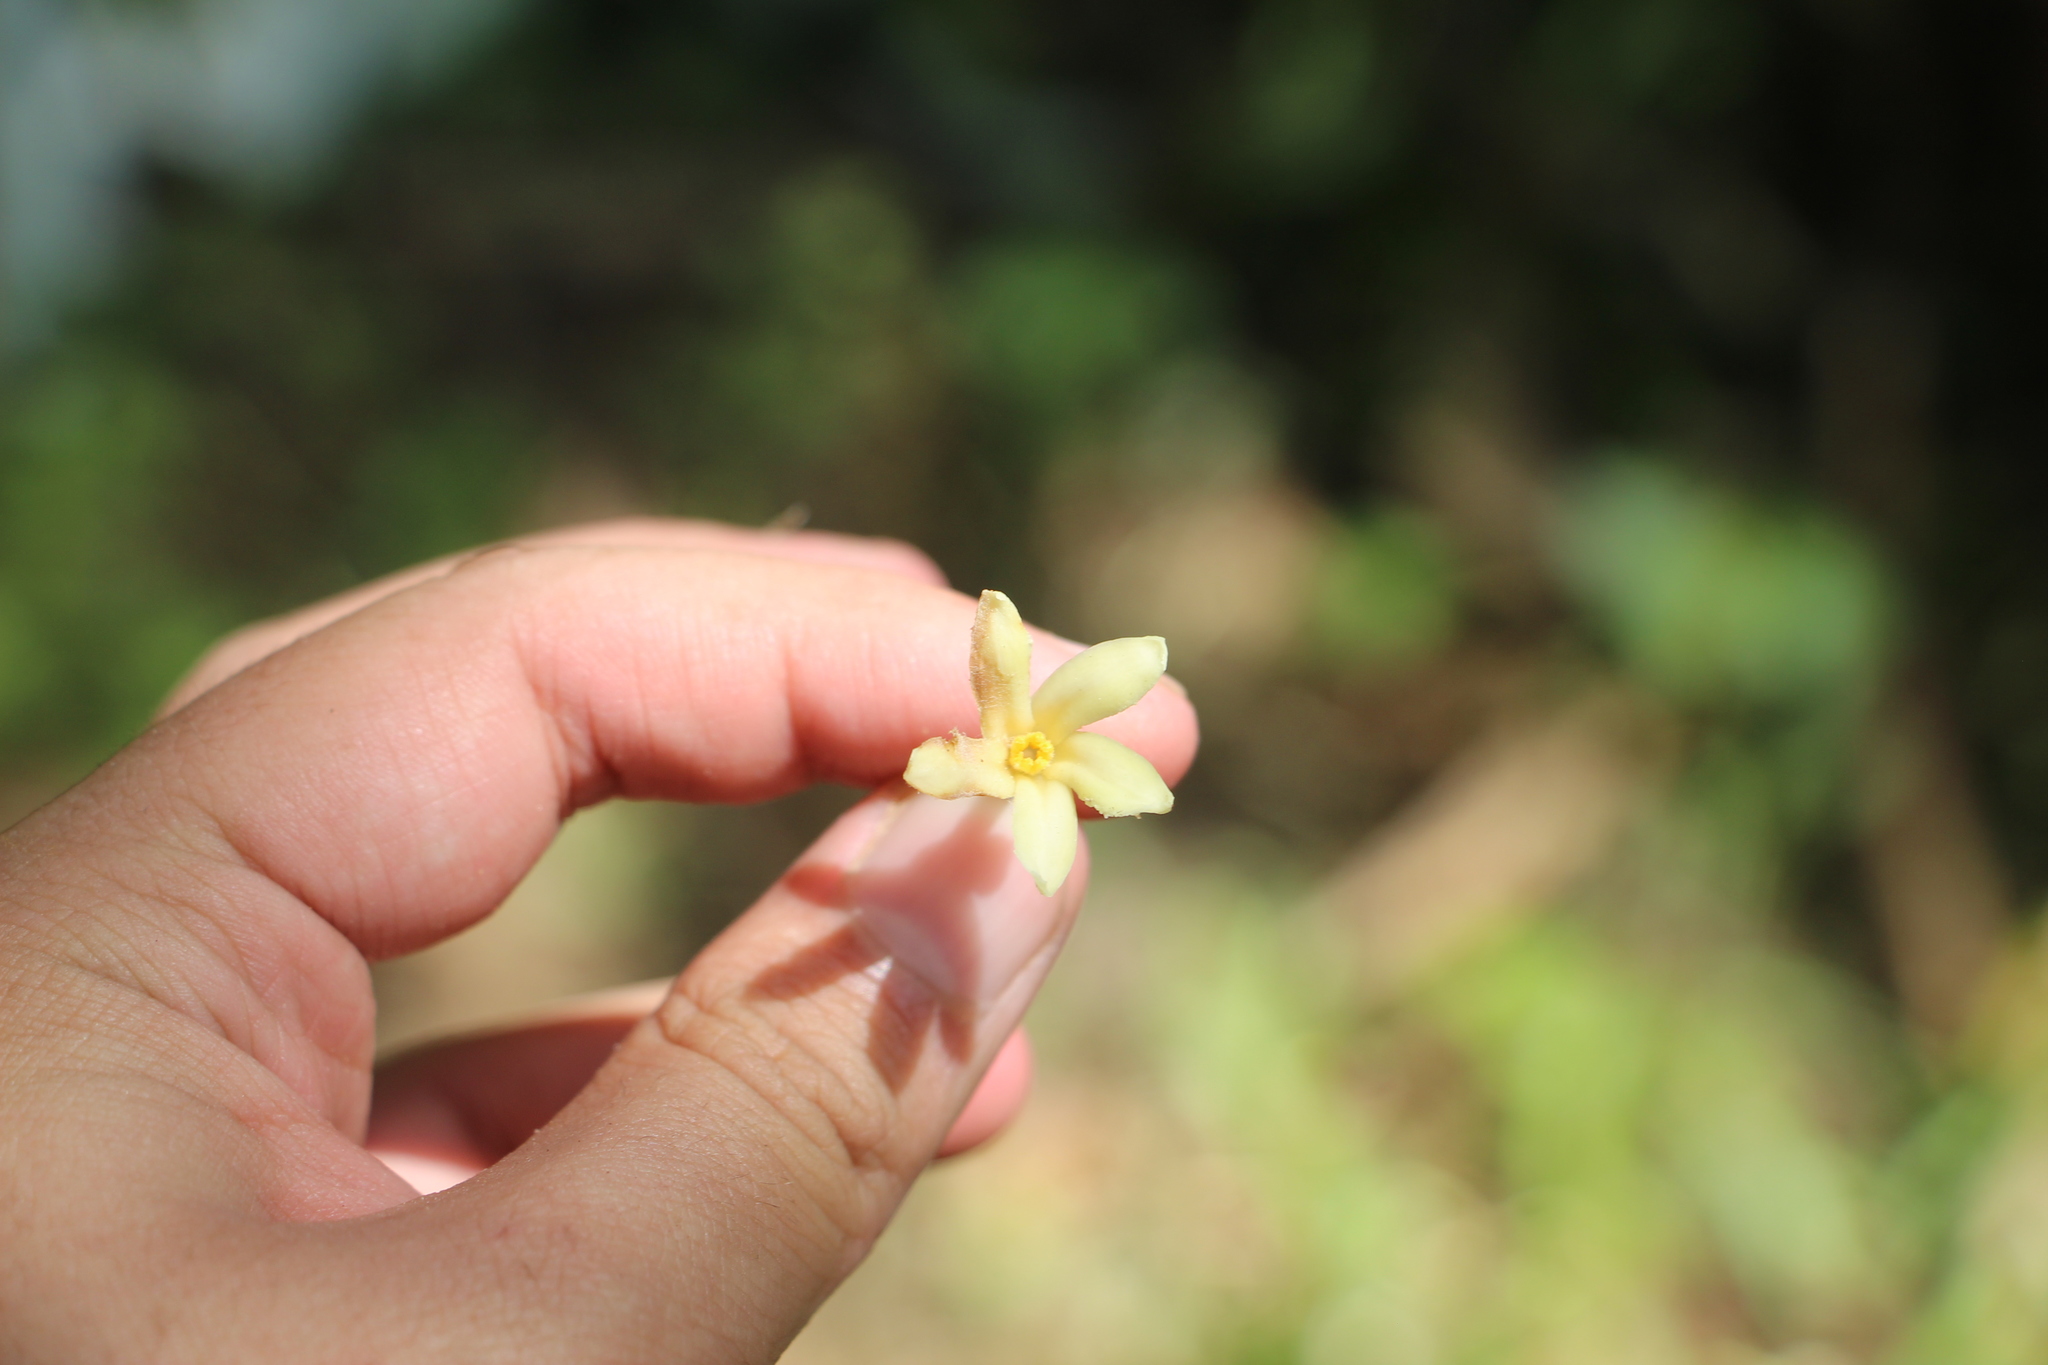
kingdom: Plantae
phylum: Tracheophyta
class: Magnoliopsida
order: Brassicales
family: Caricaceae
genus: Carica
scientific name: Carica papaya
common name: Papaya
